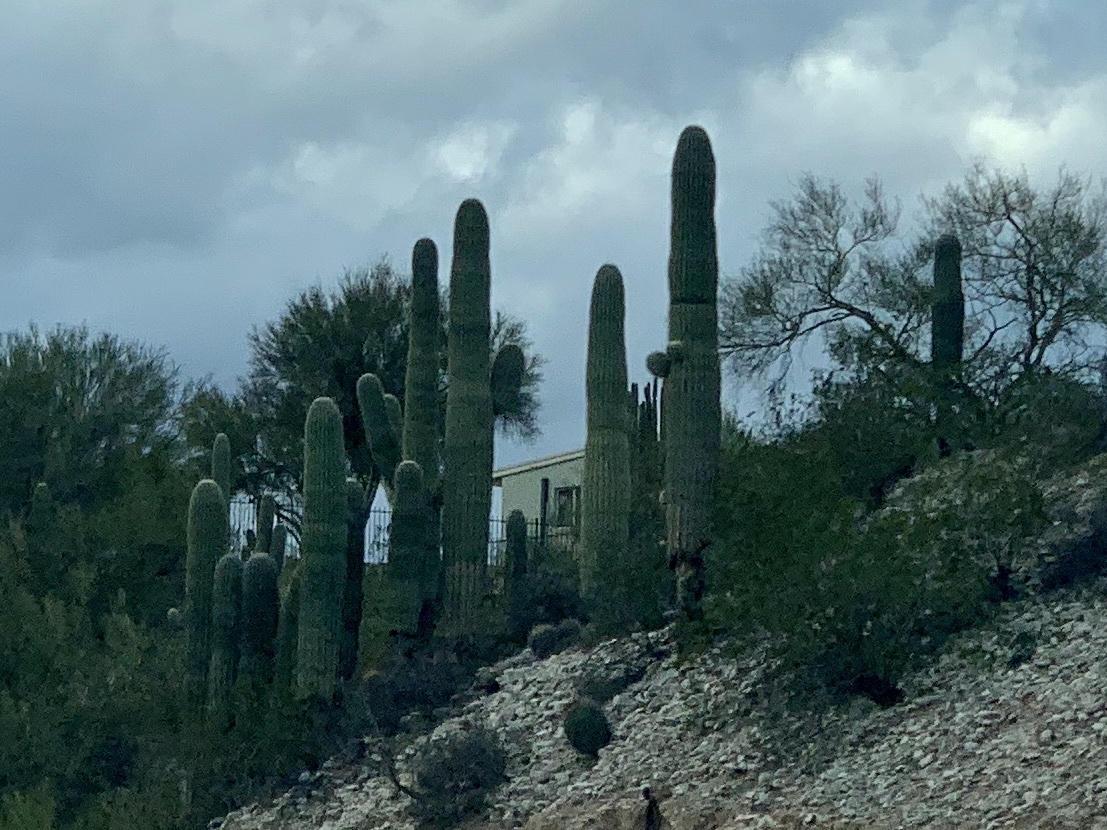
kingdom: Plantae
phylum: Tracheophyta
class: Magnoliopsida
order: Caryophyllales
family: Cactaceae
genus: Carnegiea
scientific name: Carnegiea gigantea
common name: Saguaro
